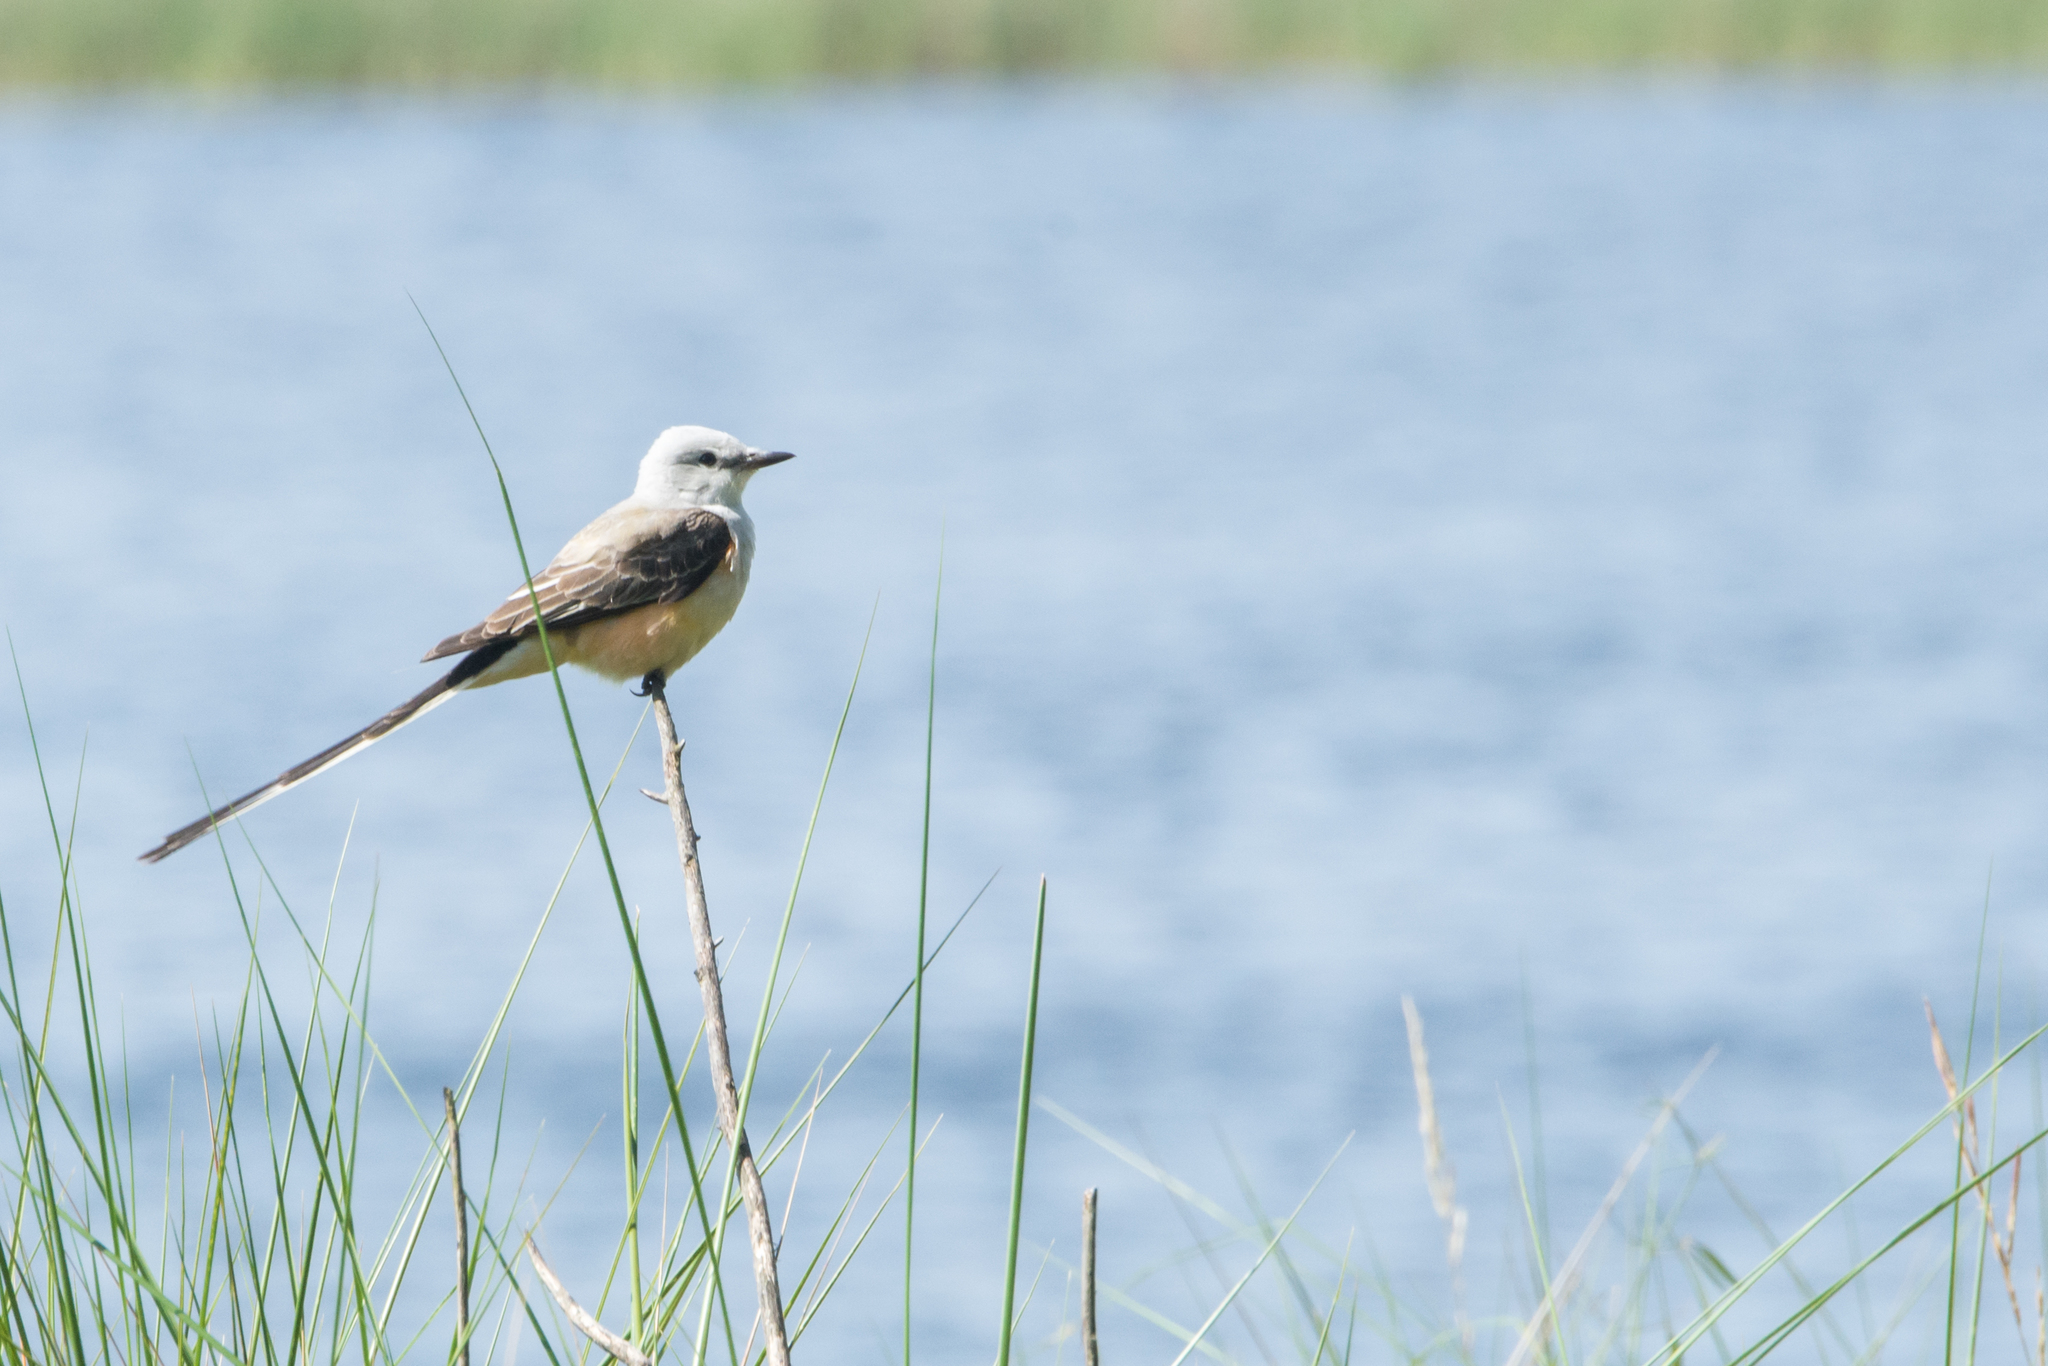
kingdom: Animalia
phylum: Chordata
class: Aves
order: Passeriformes
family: Tyrannidae
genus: Tyrannus
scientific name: Tyrannus forficatus
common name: Scissor-tailed flycatcher
